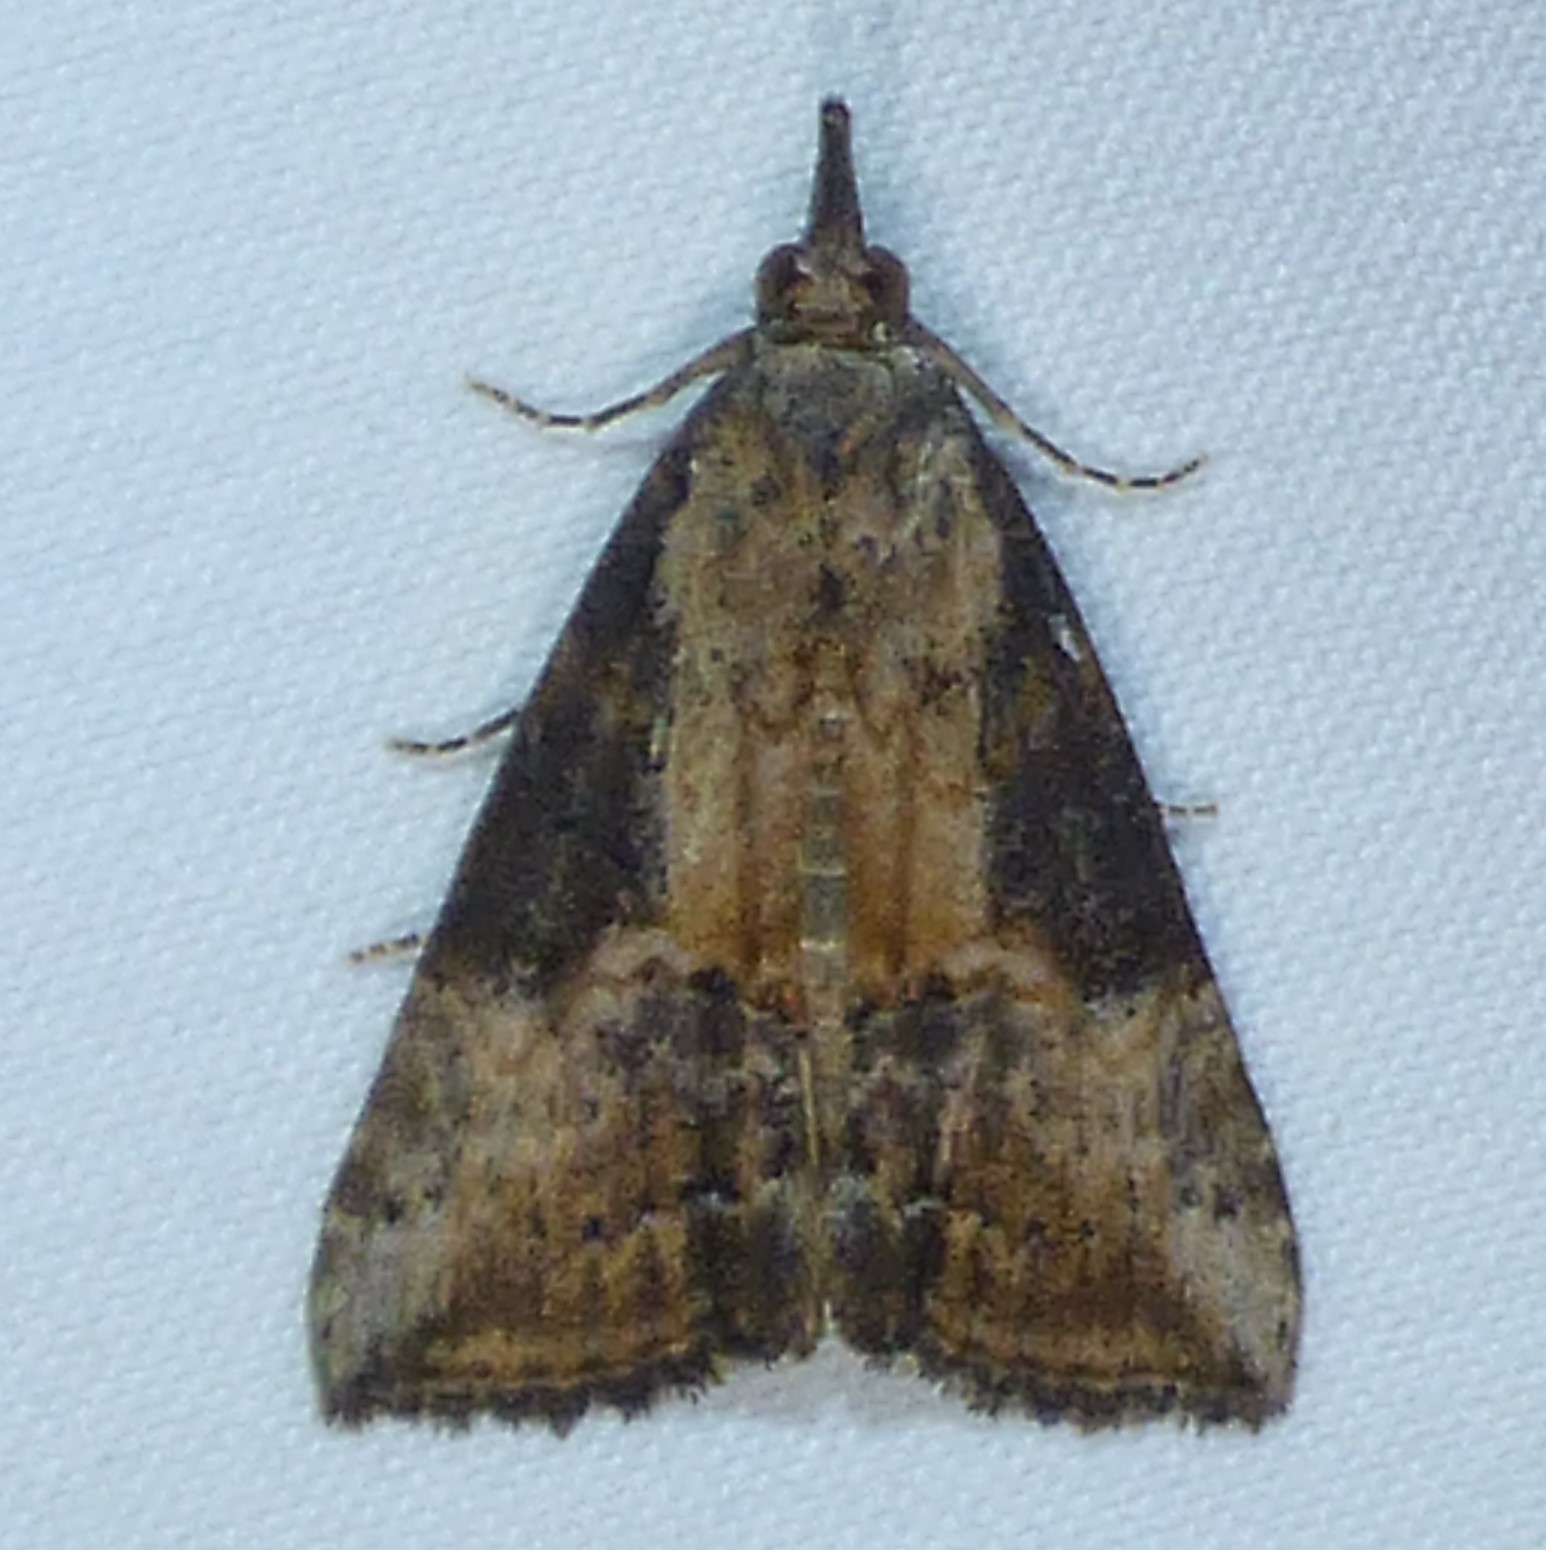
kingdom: Animalia
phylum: Arthropoda
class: Insecta
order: Lepidoptera
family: Erebidae
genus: Hypena
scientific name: Hypena scabra
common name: Green cloverworm
